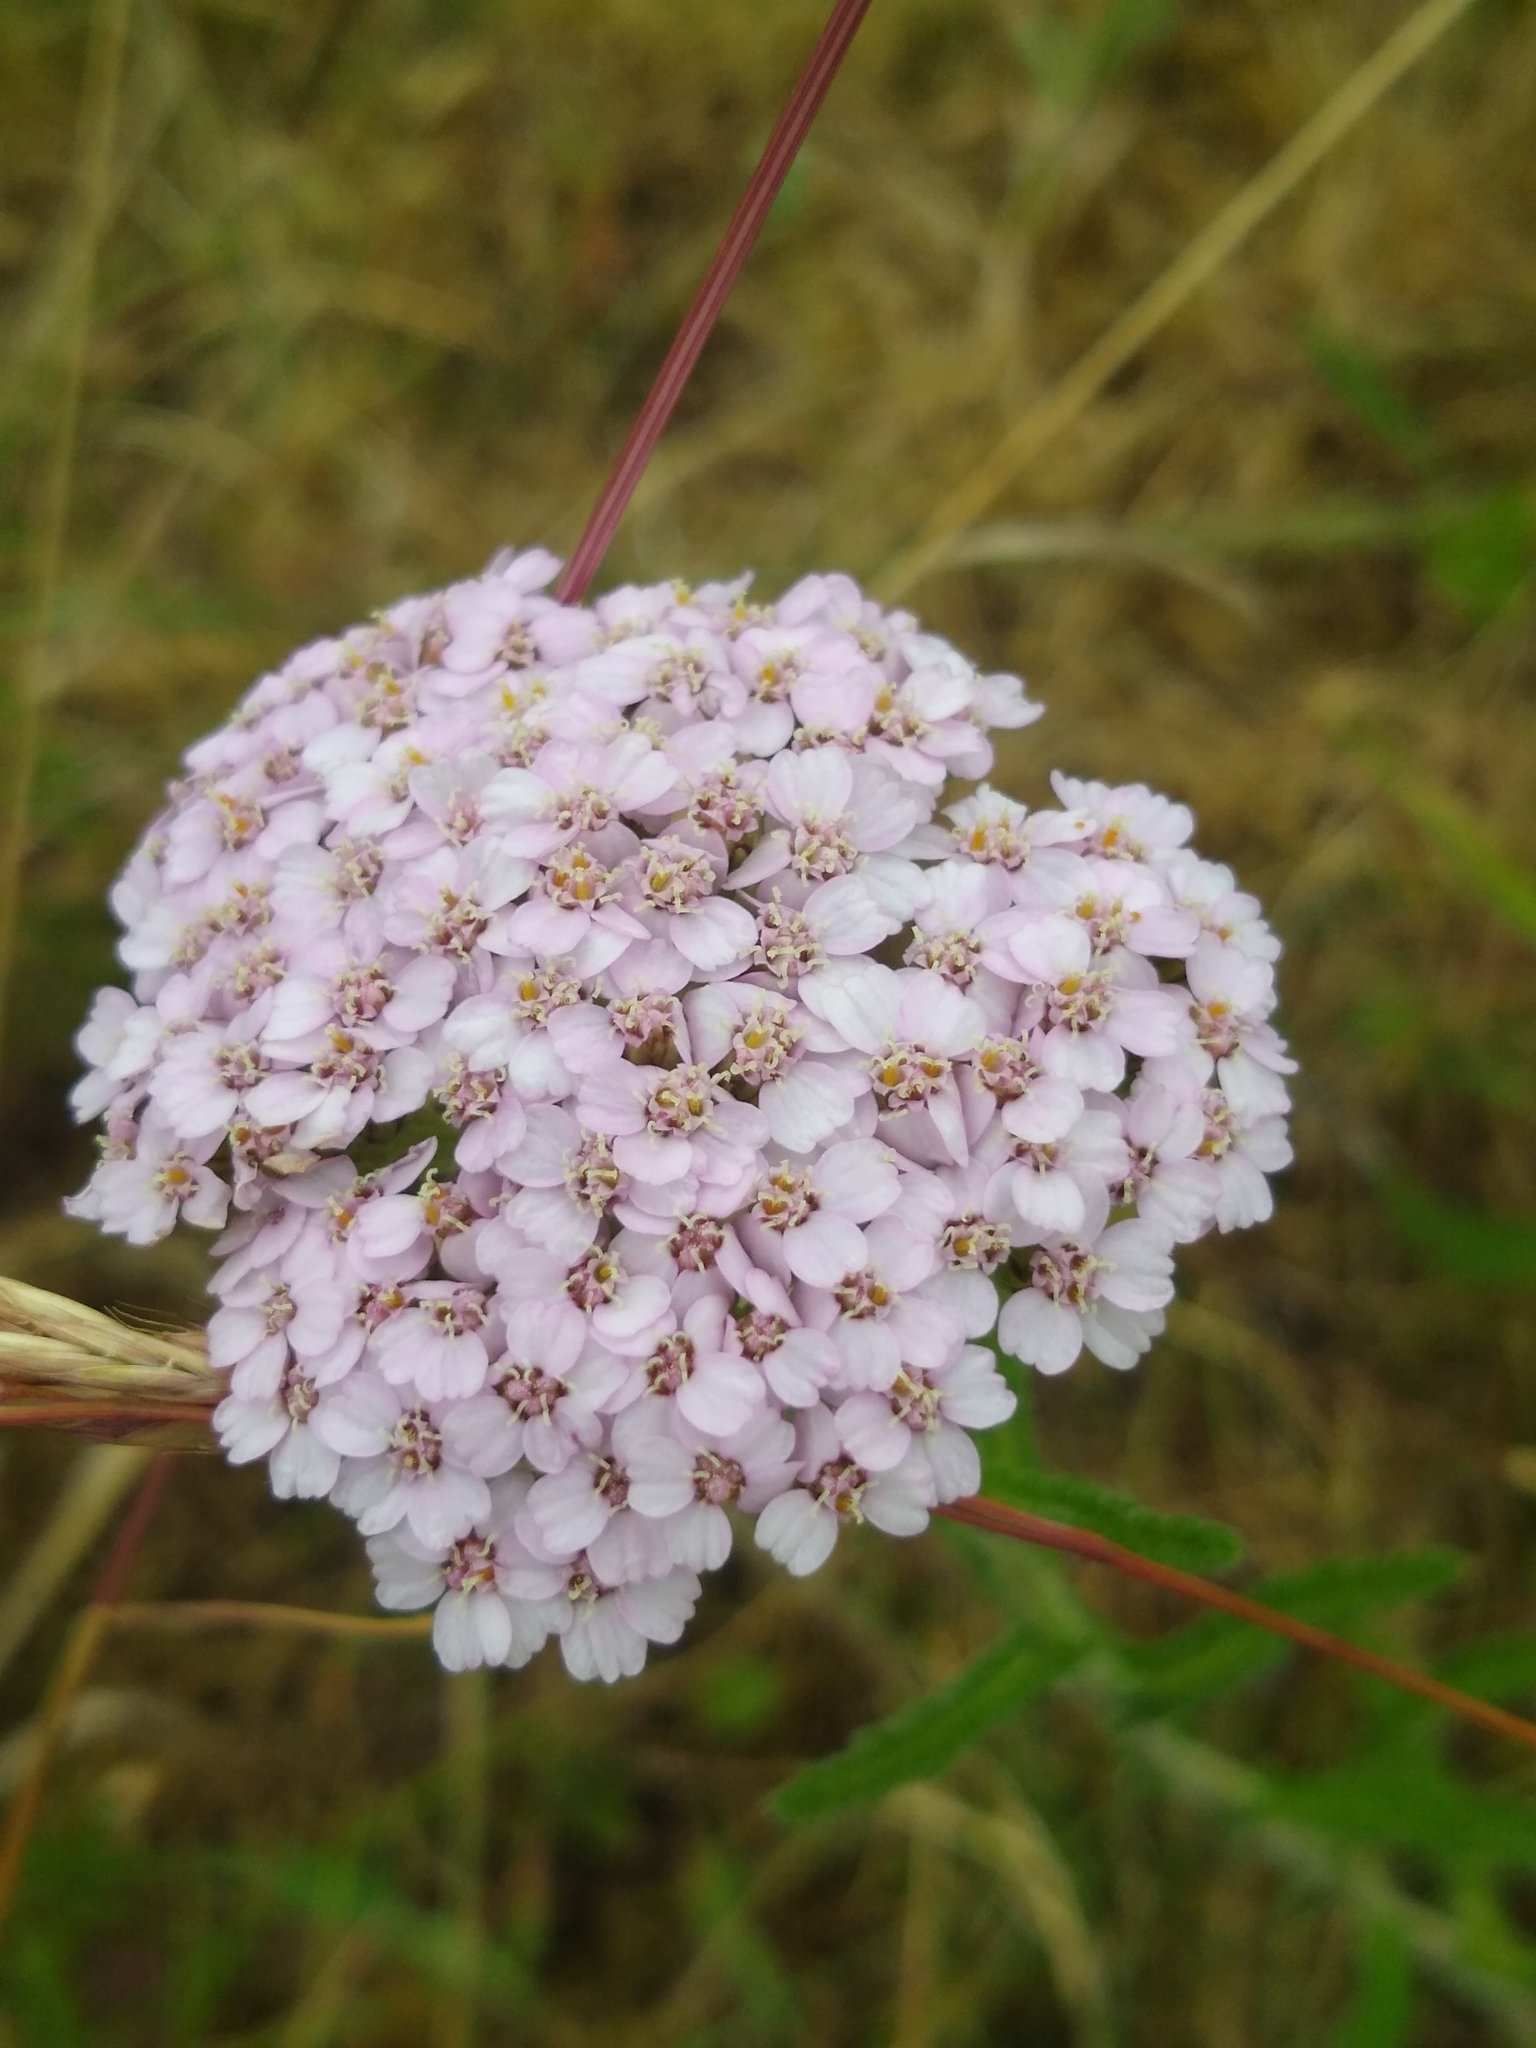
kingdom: Plantae
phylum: Tracheophyta
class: Magnoliopsida
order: Asterales
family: Asteraceae
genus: Achillea
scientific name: Achillea millefolium
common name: Yarrow
